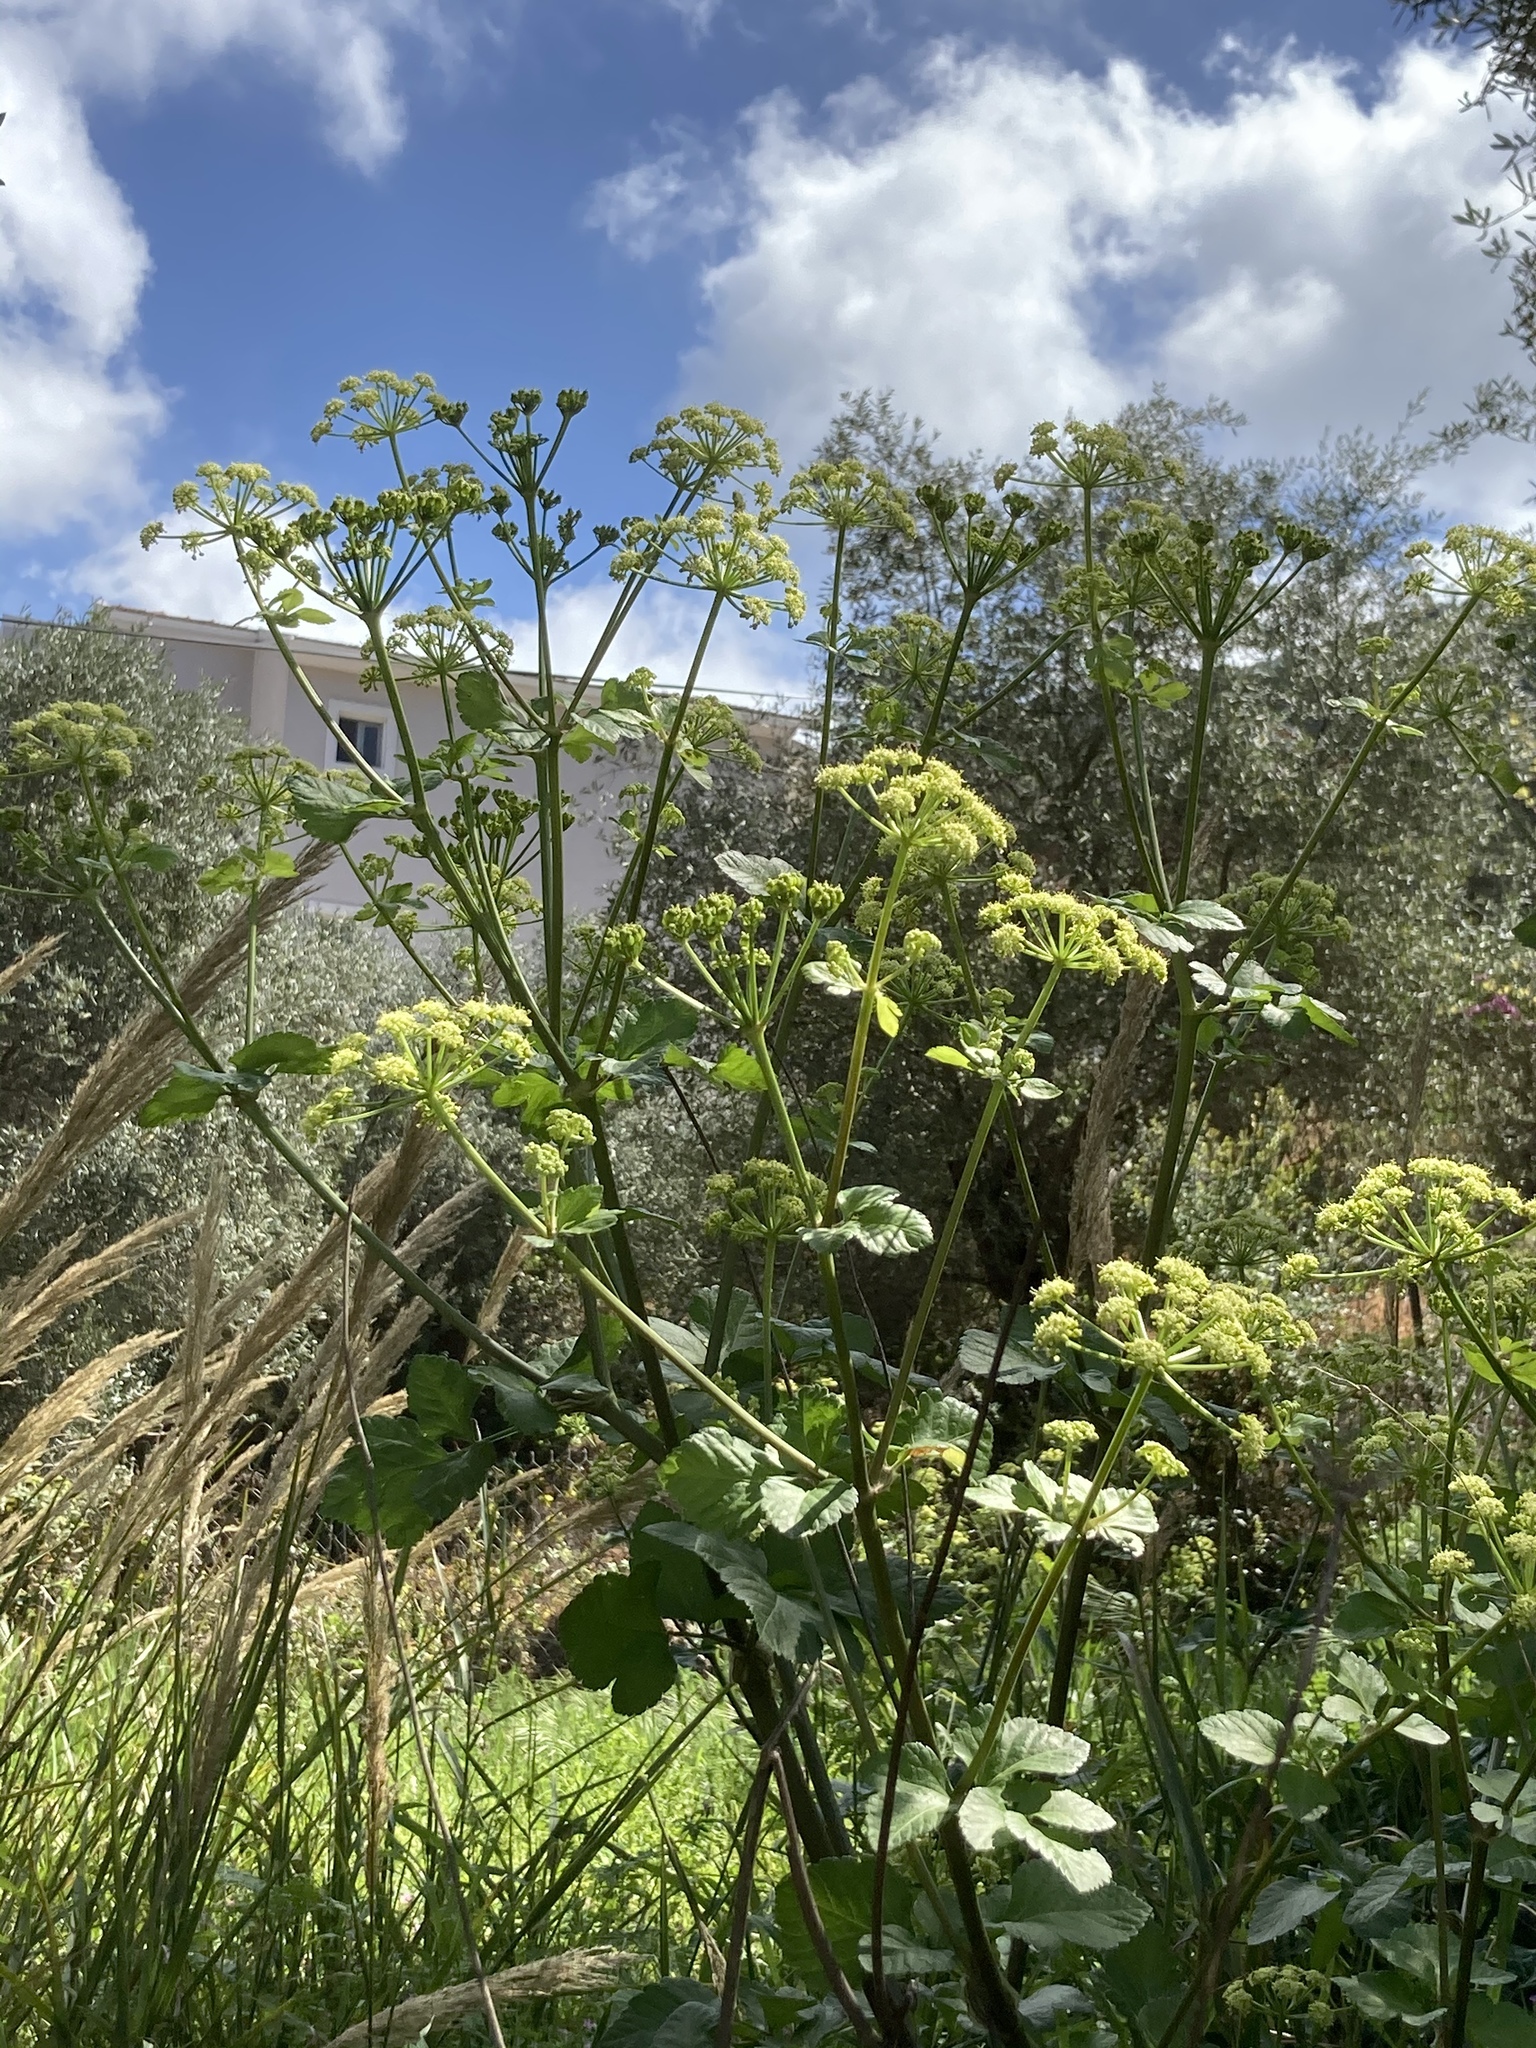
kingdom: Plantae
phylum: Tracheophyta
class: Magnoliopsida
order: Apiales
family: Apiaceae
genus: Smyrnium
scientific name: Smyrnium olusatrum
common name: Alexanders
